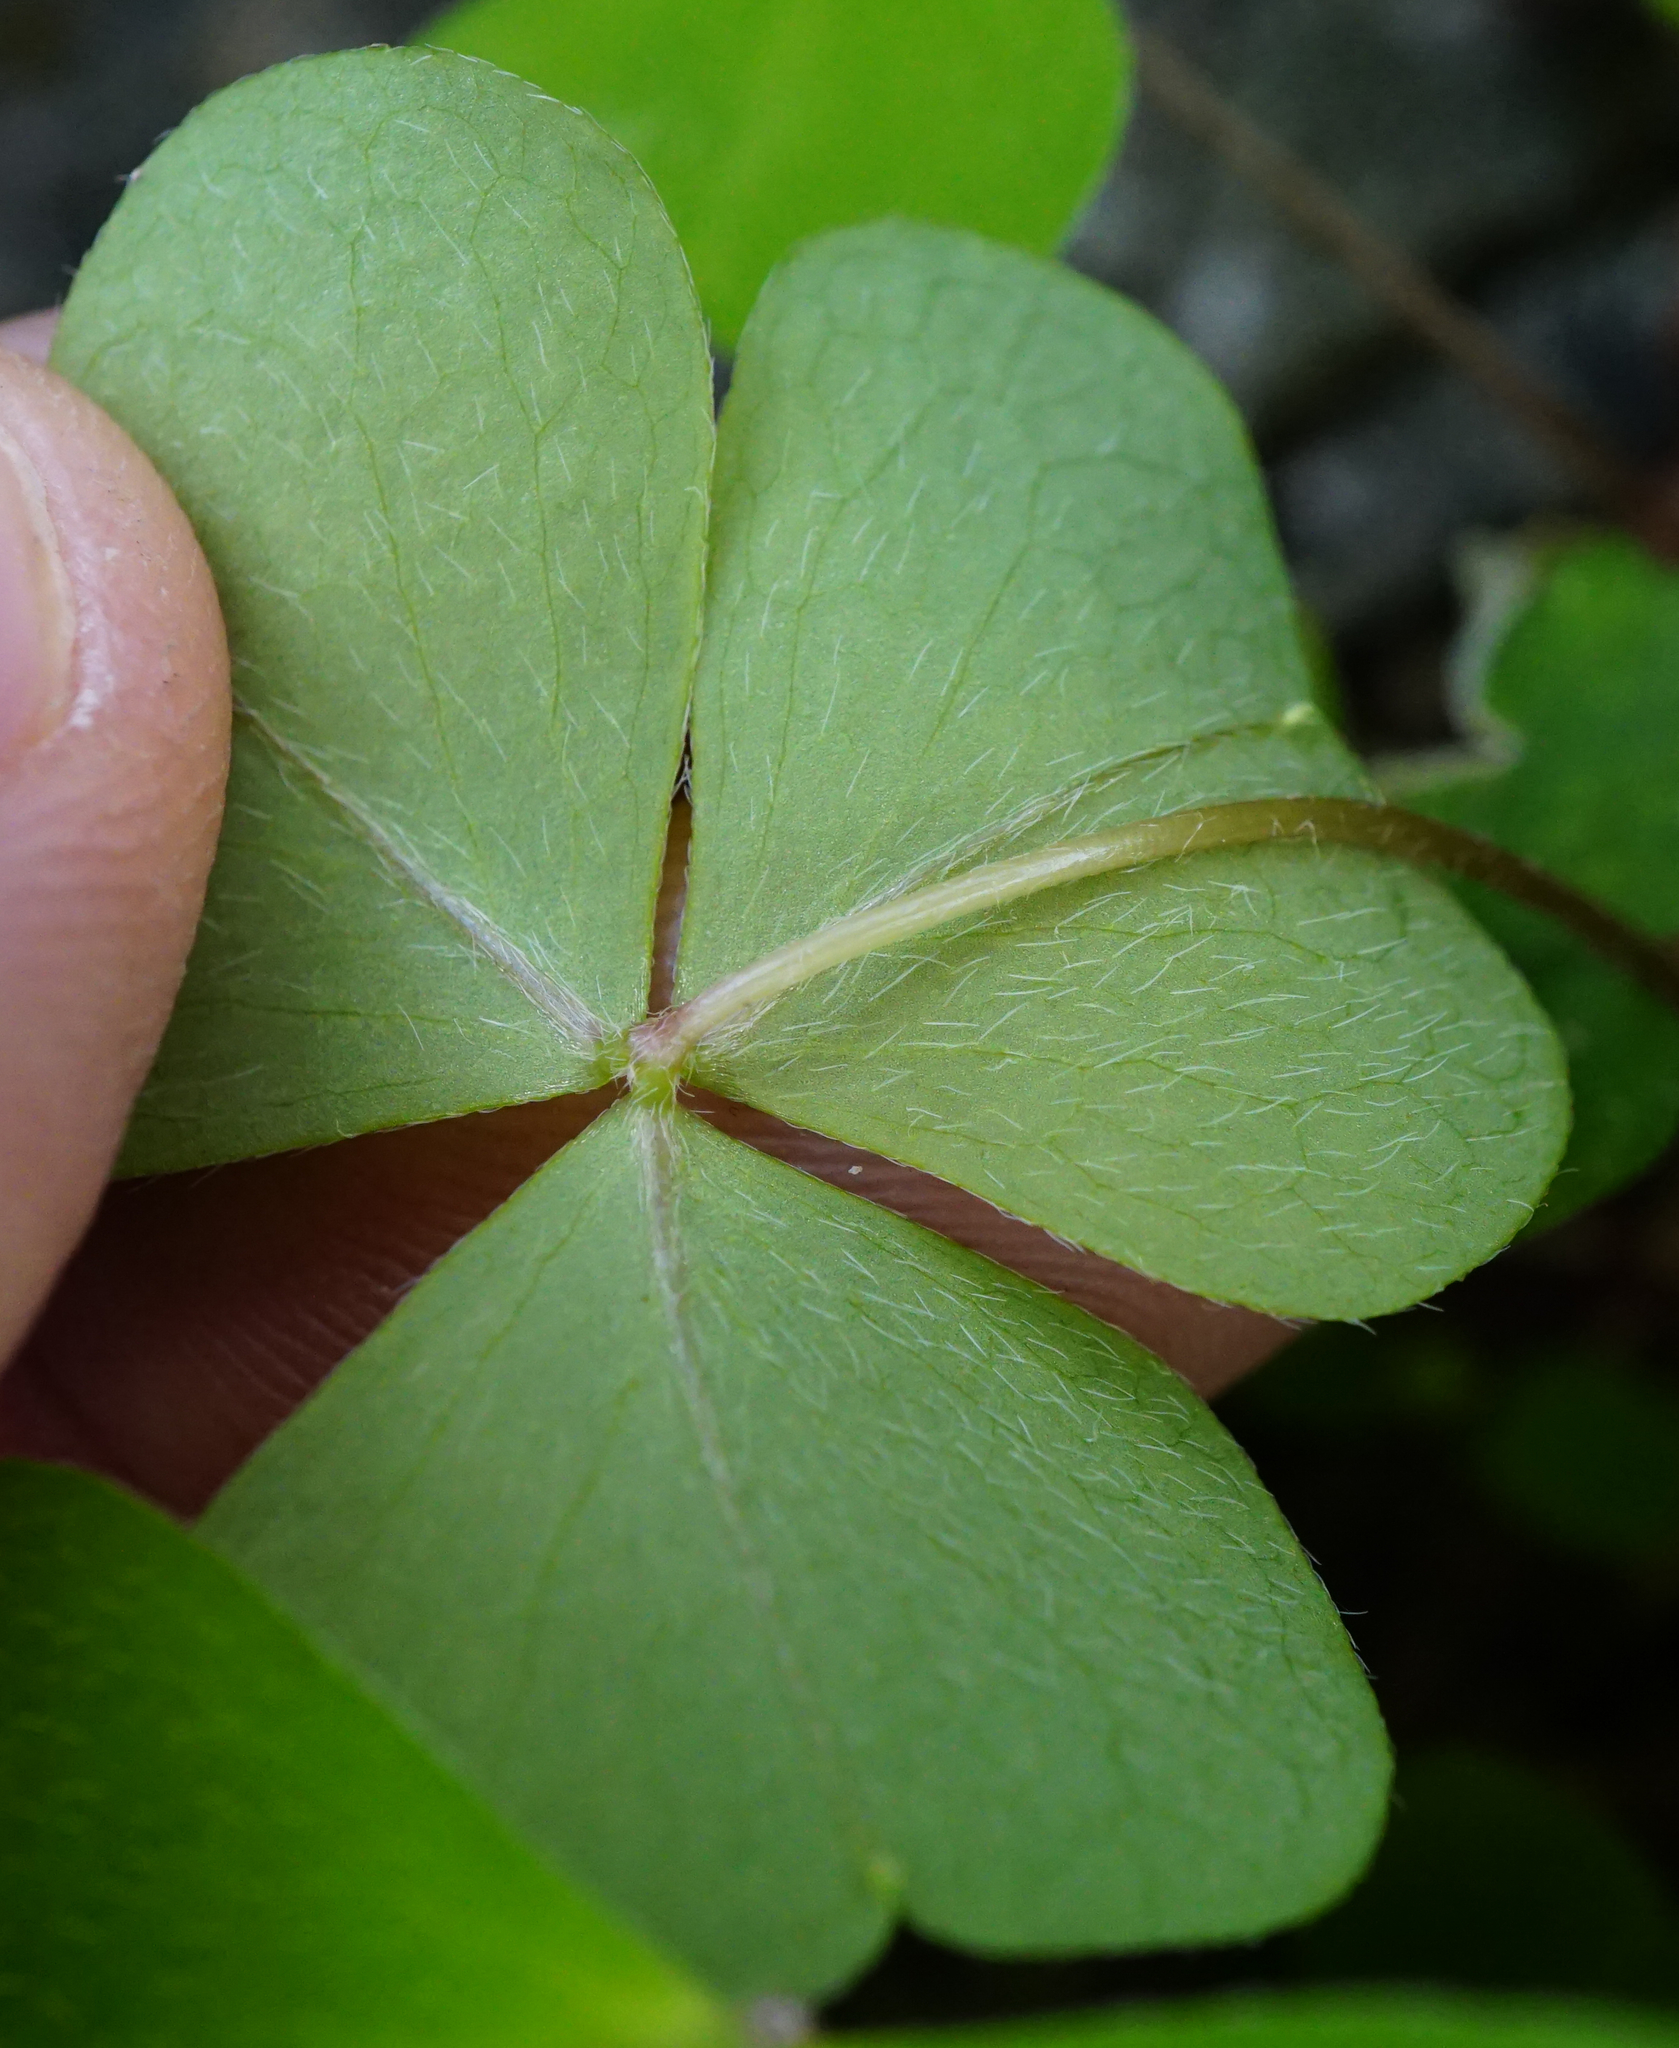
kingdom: Plantae
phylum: Tracheophyta
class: Magnoliopsida
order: Oxalidales
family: Oxalidaceae
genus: Oxalis
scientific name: Oxalis acetosella
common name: Wood-sorrel
